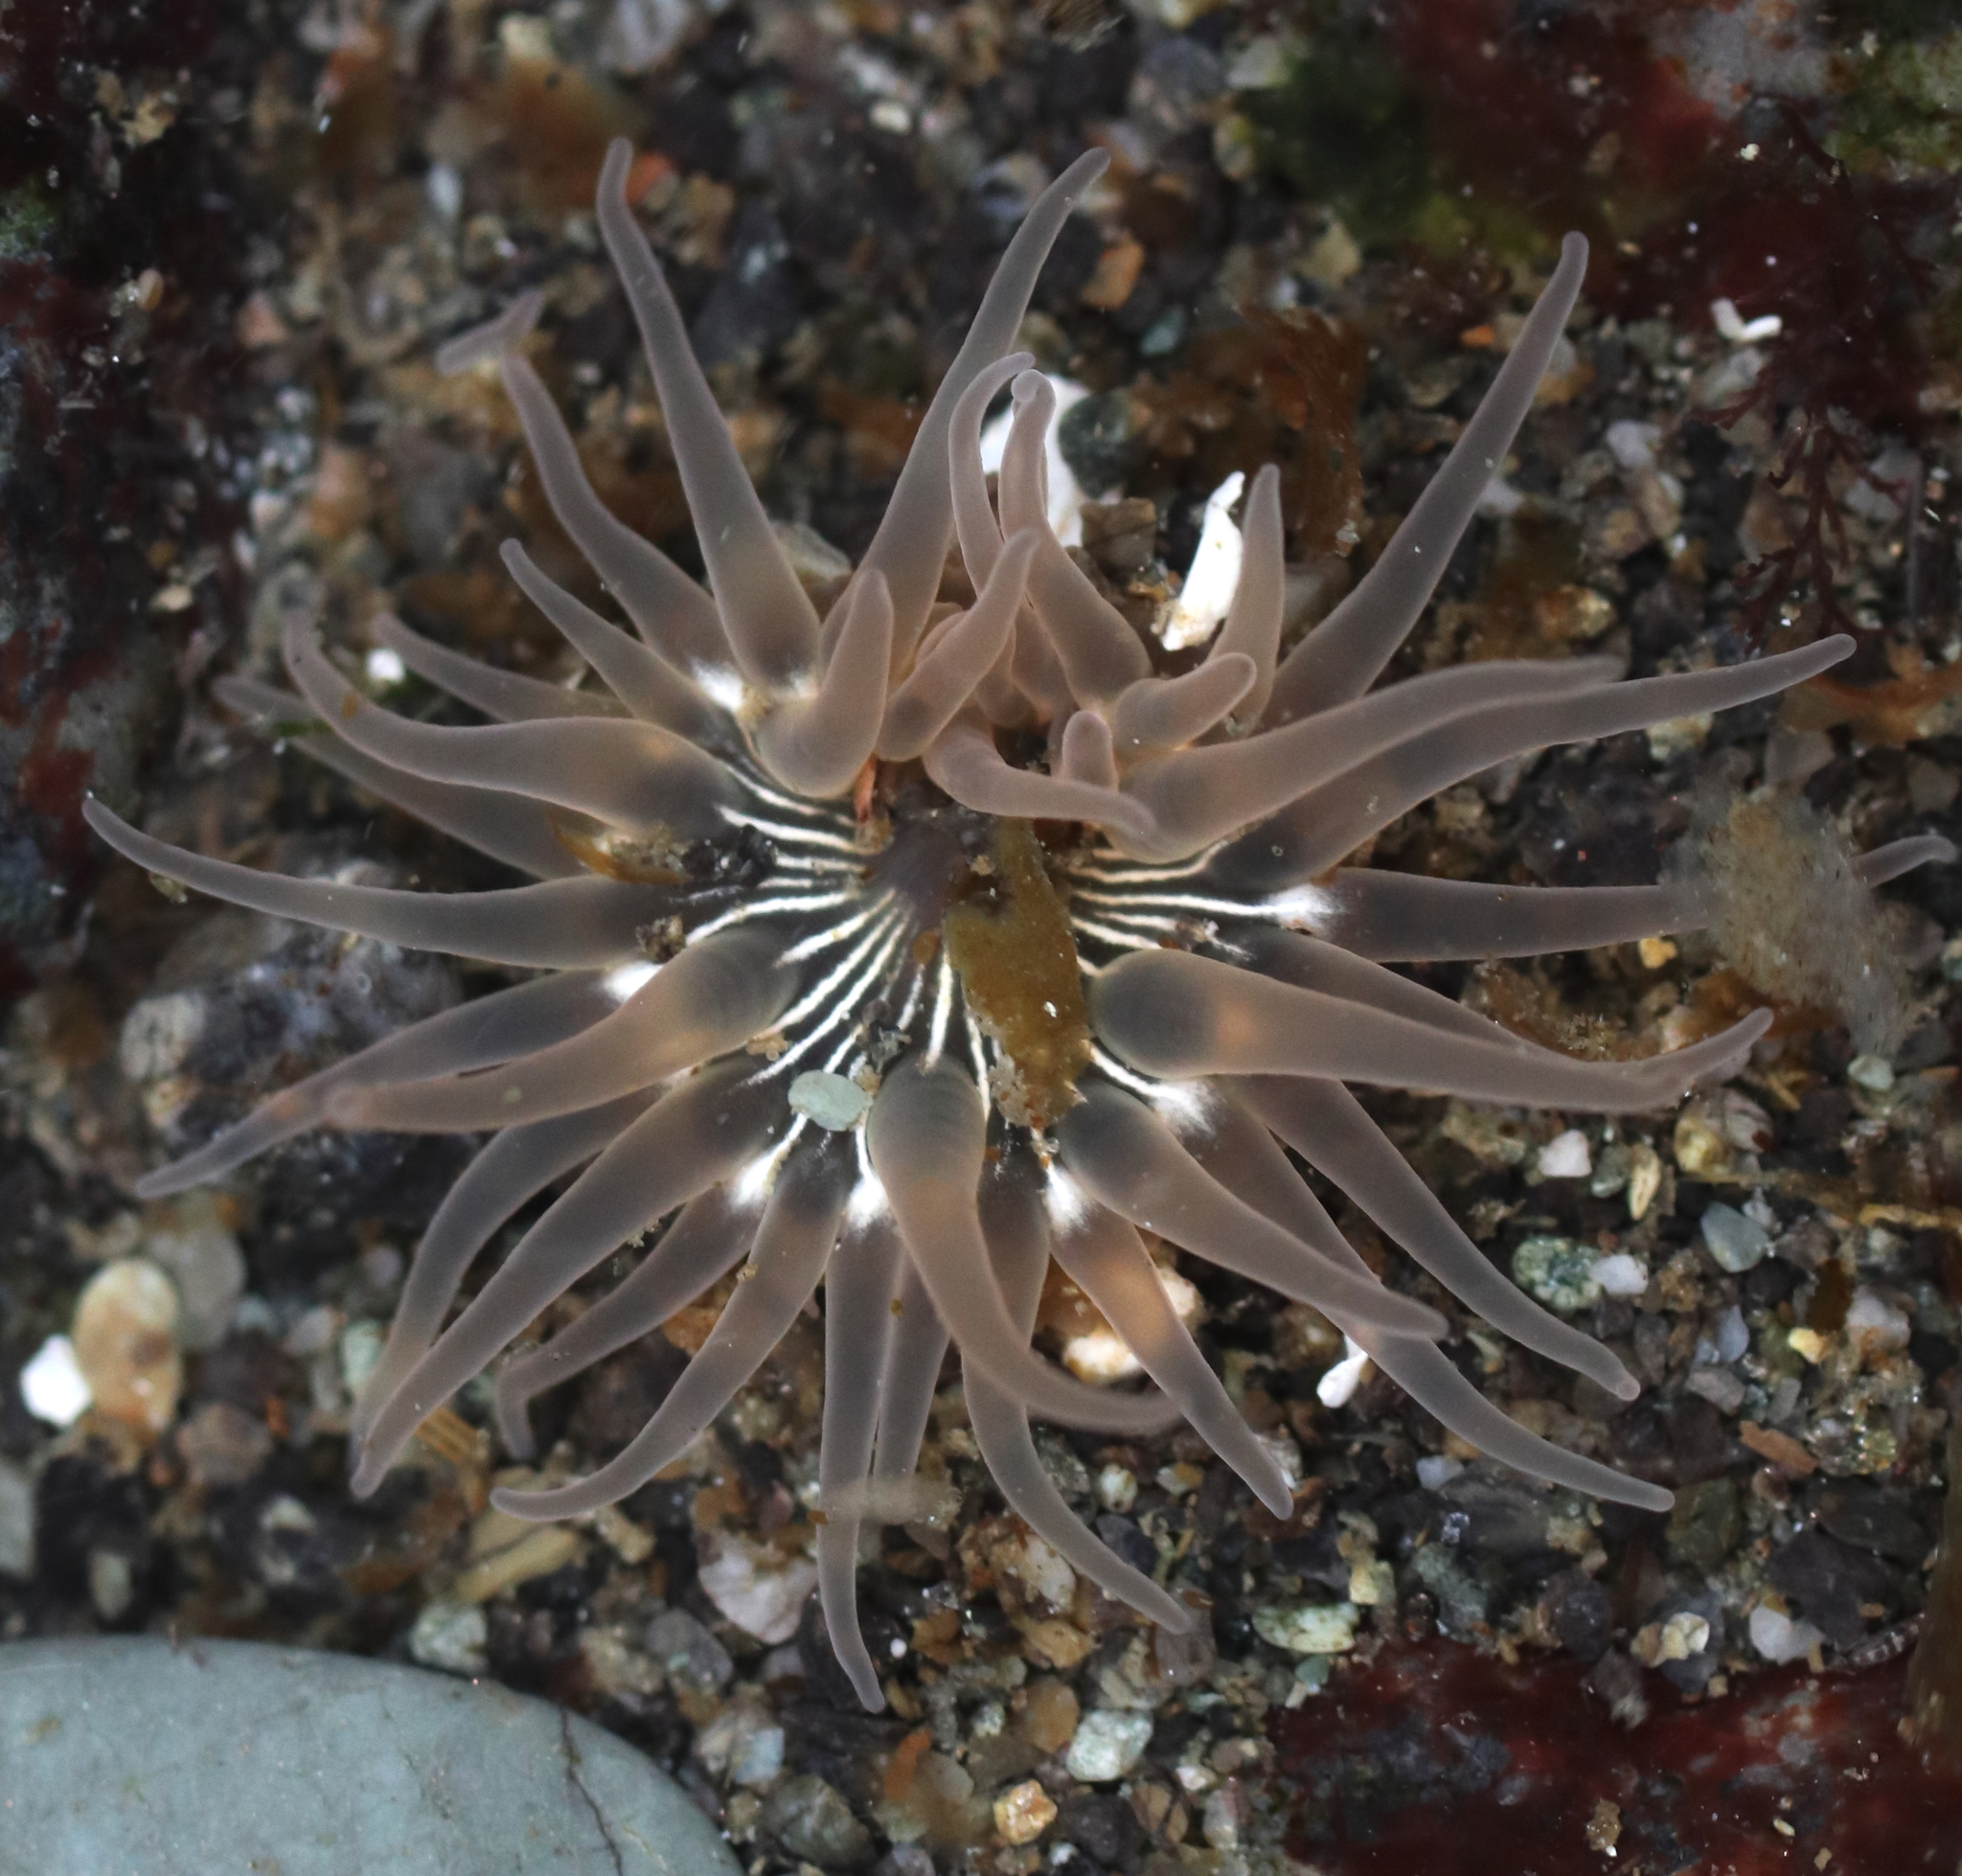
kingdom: Animalia
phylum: Cnidaria
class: Anthozoa
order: Actiniaria
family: Actiniidae
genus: Aulactinia
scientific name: Aulactinia incubans
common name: Incubating anemone
